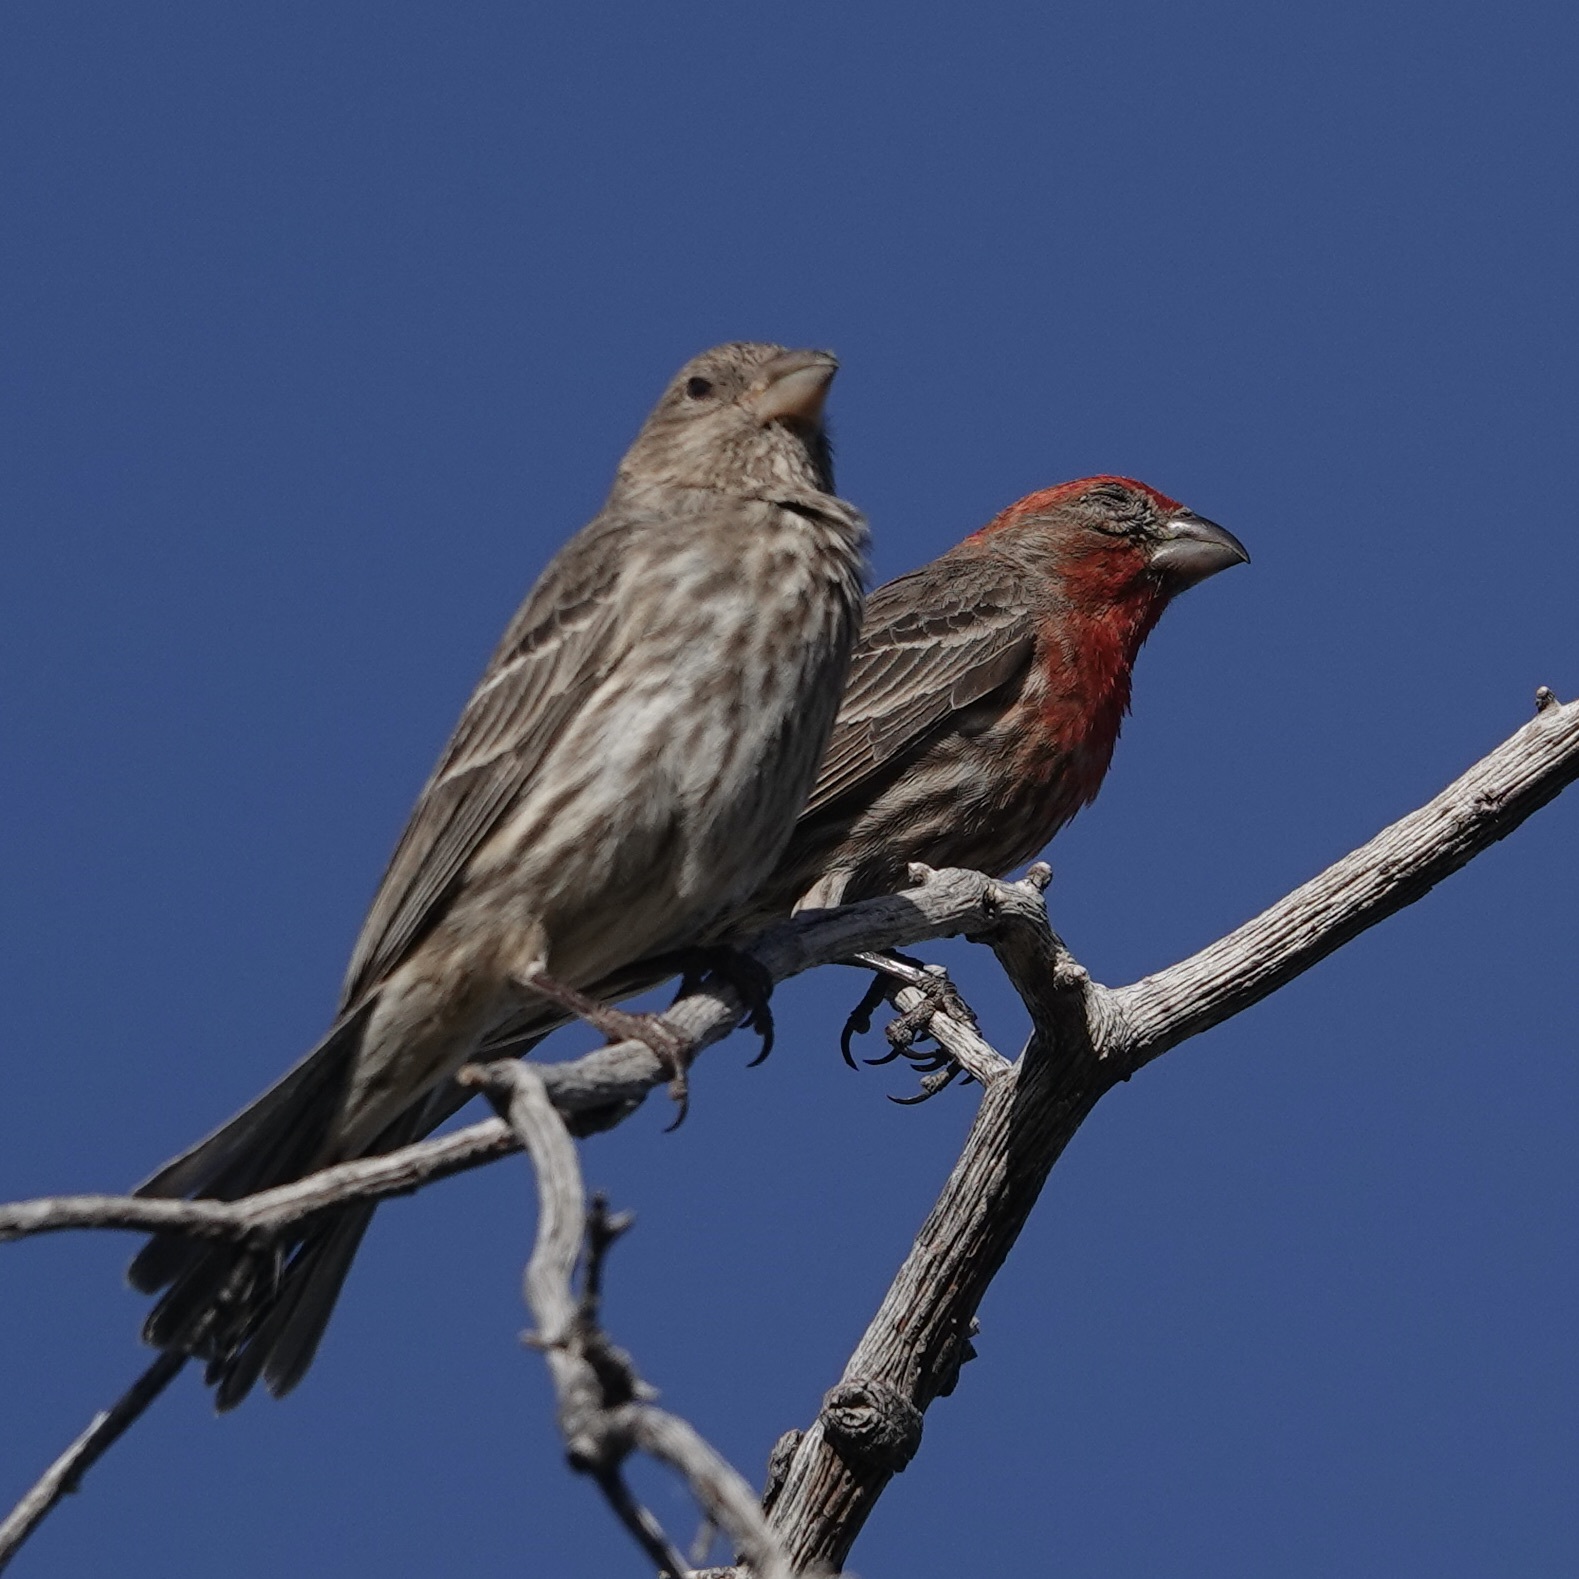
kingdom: Animalia
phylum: Chordata
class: Aves
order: Passeriformes
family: Fringillidae
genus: Haemorhous
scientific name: Haemorhous mexicanus
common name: House finch
